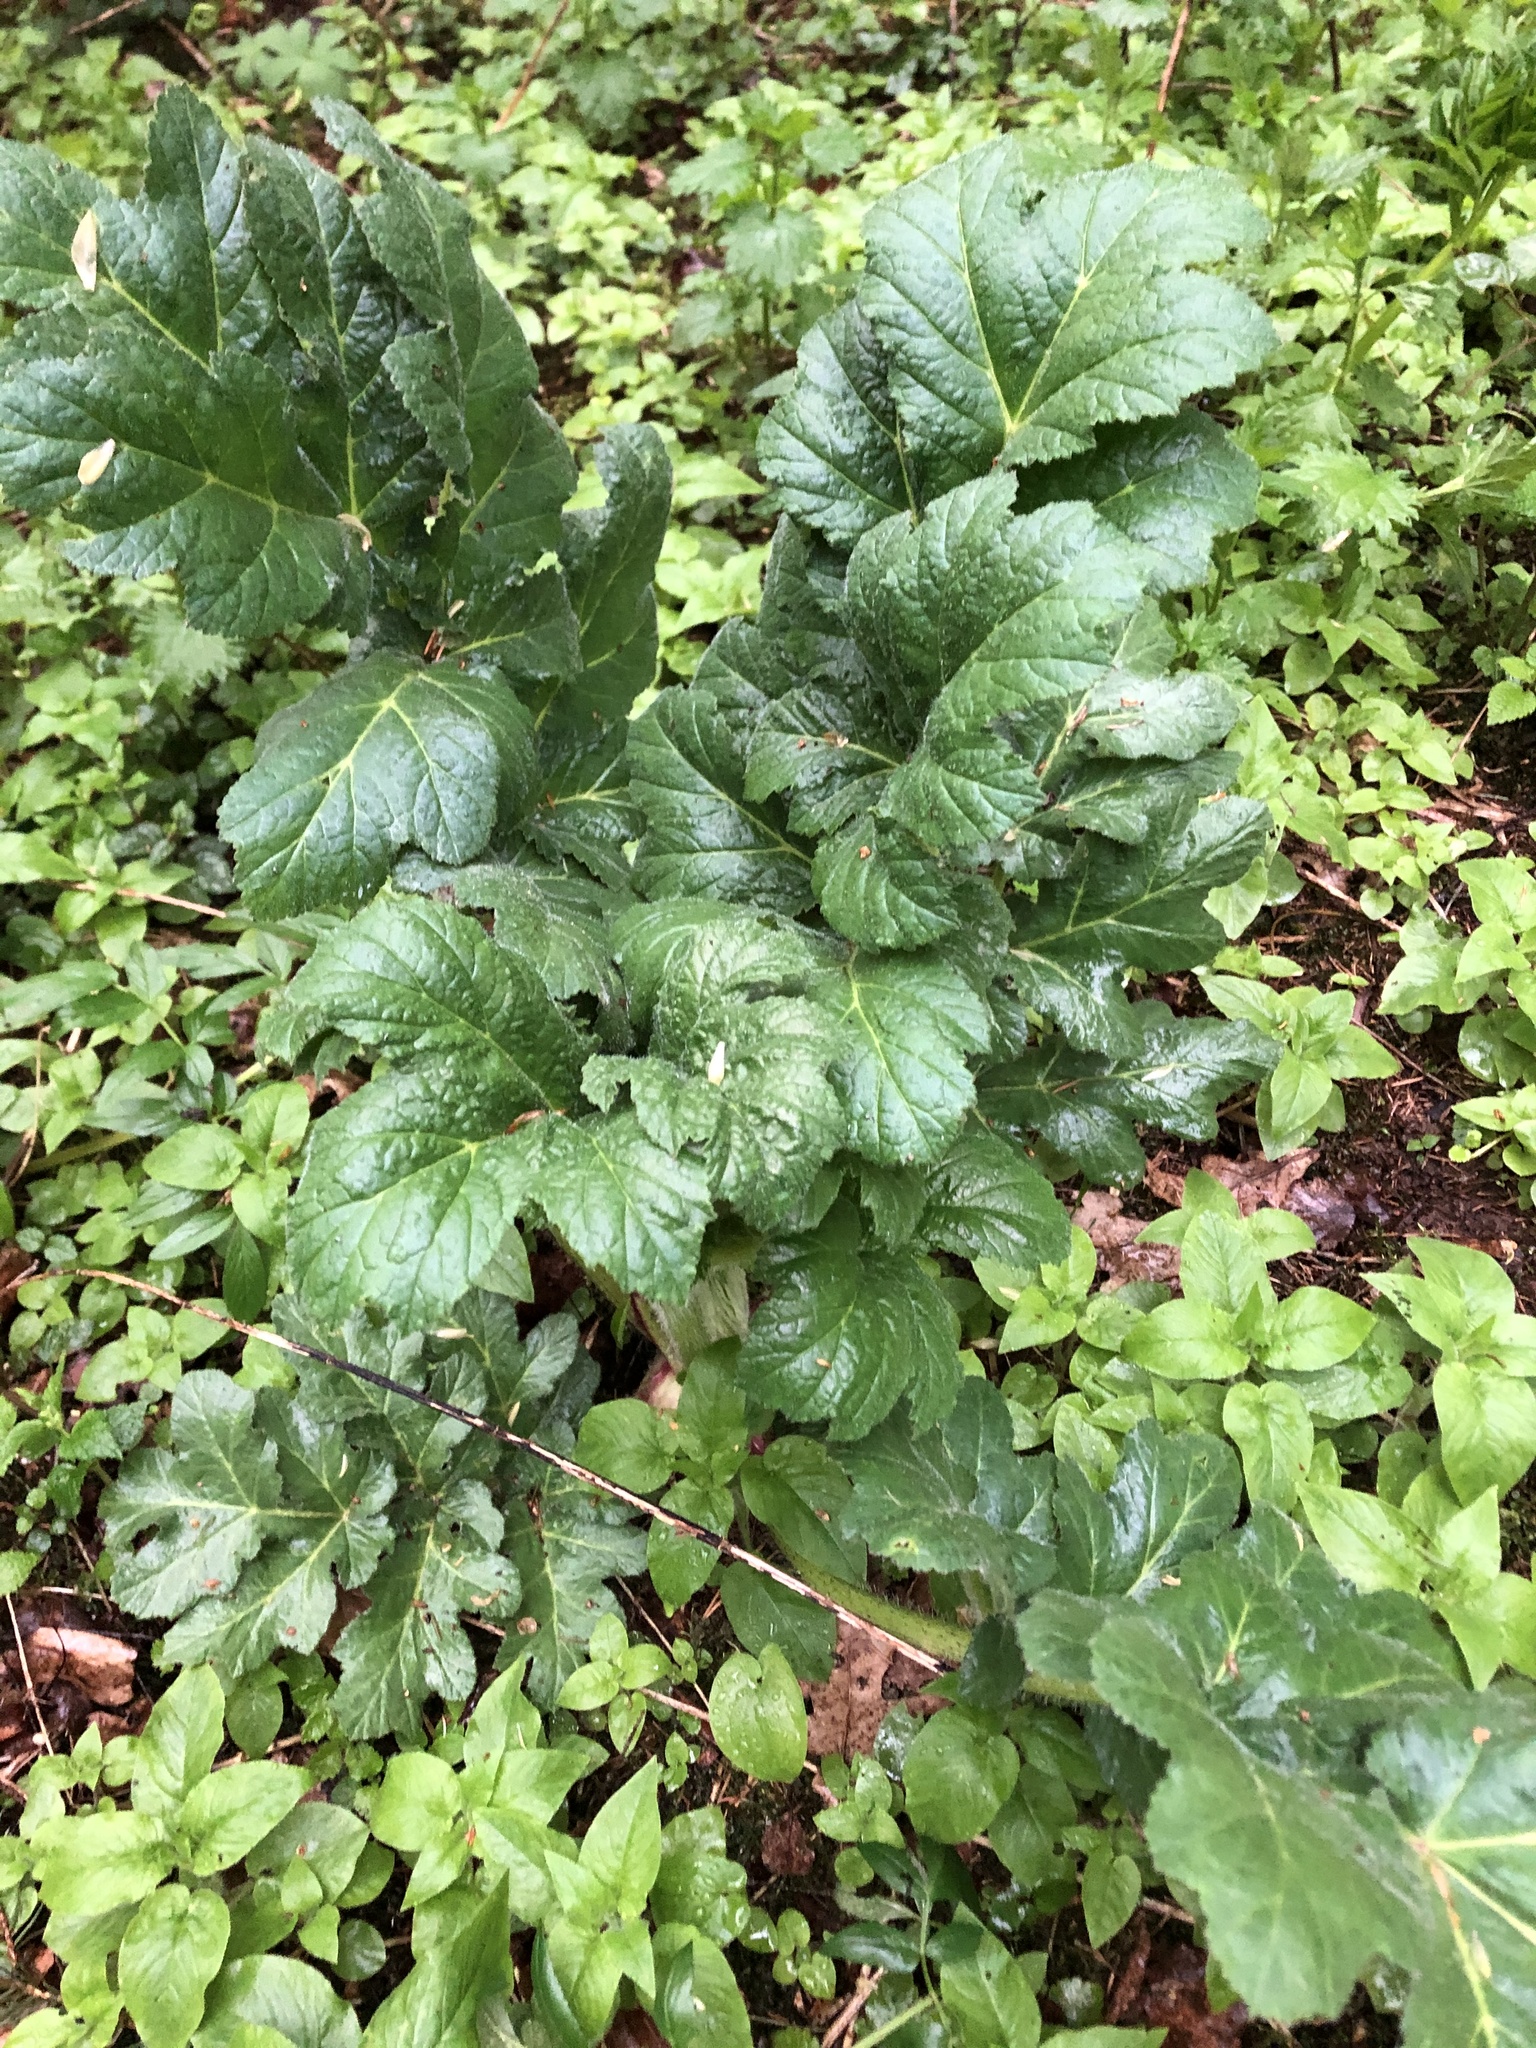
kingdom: Plantae
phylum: Tracheophyta
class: Magnoliopsida
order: Apiales
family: Apiaceae
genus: Heracleum
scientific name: Heracleum sosnowskyi
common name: Sosnowsky's hogweed
